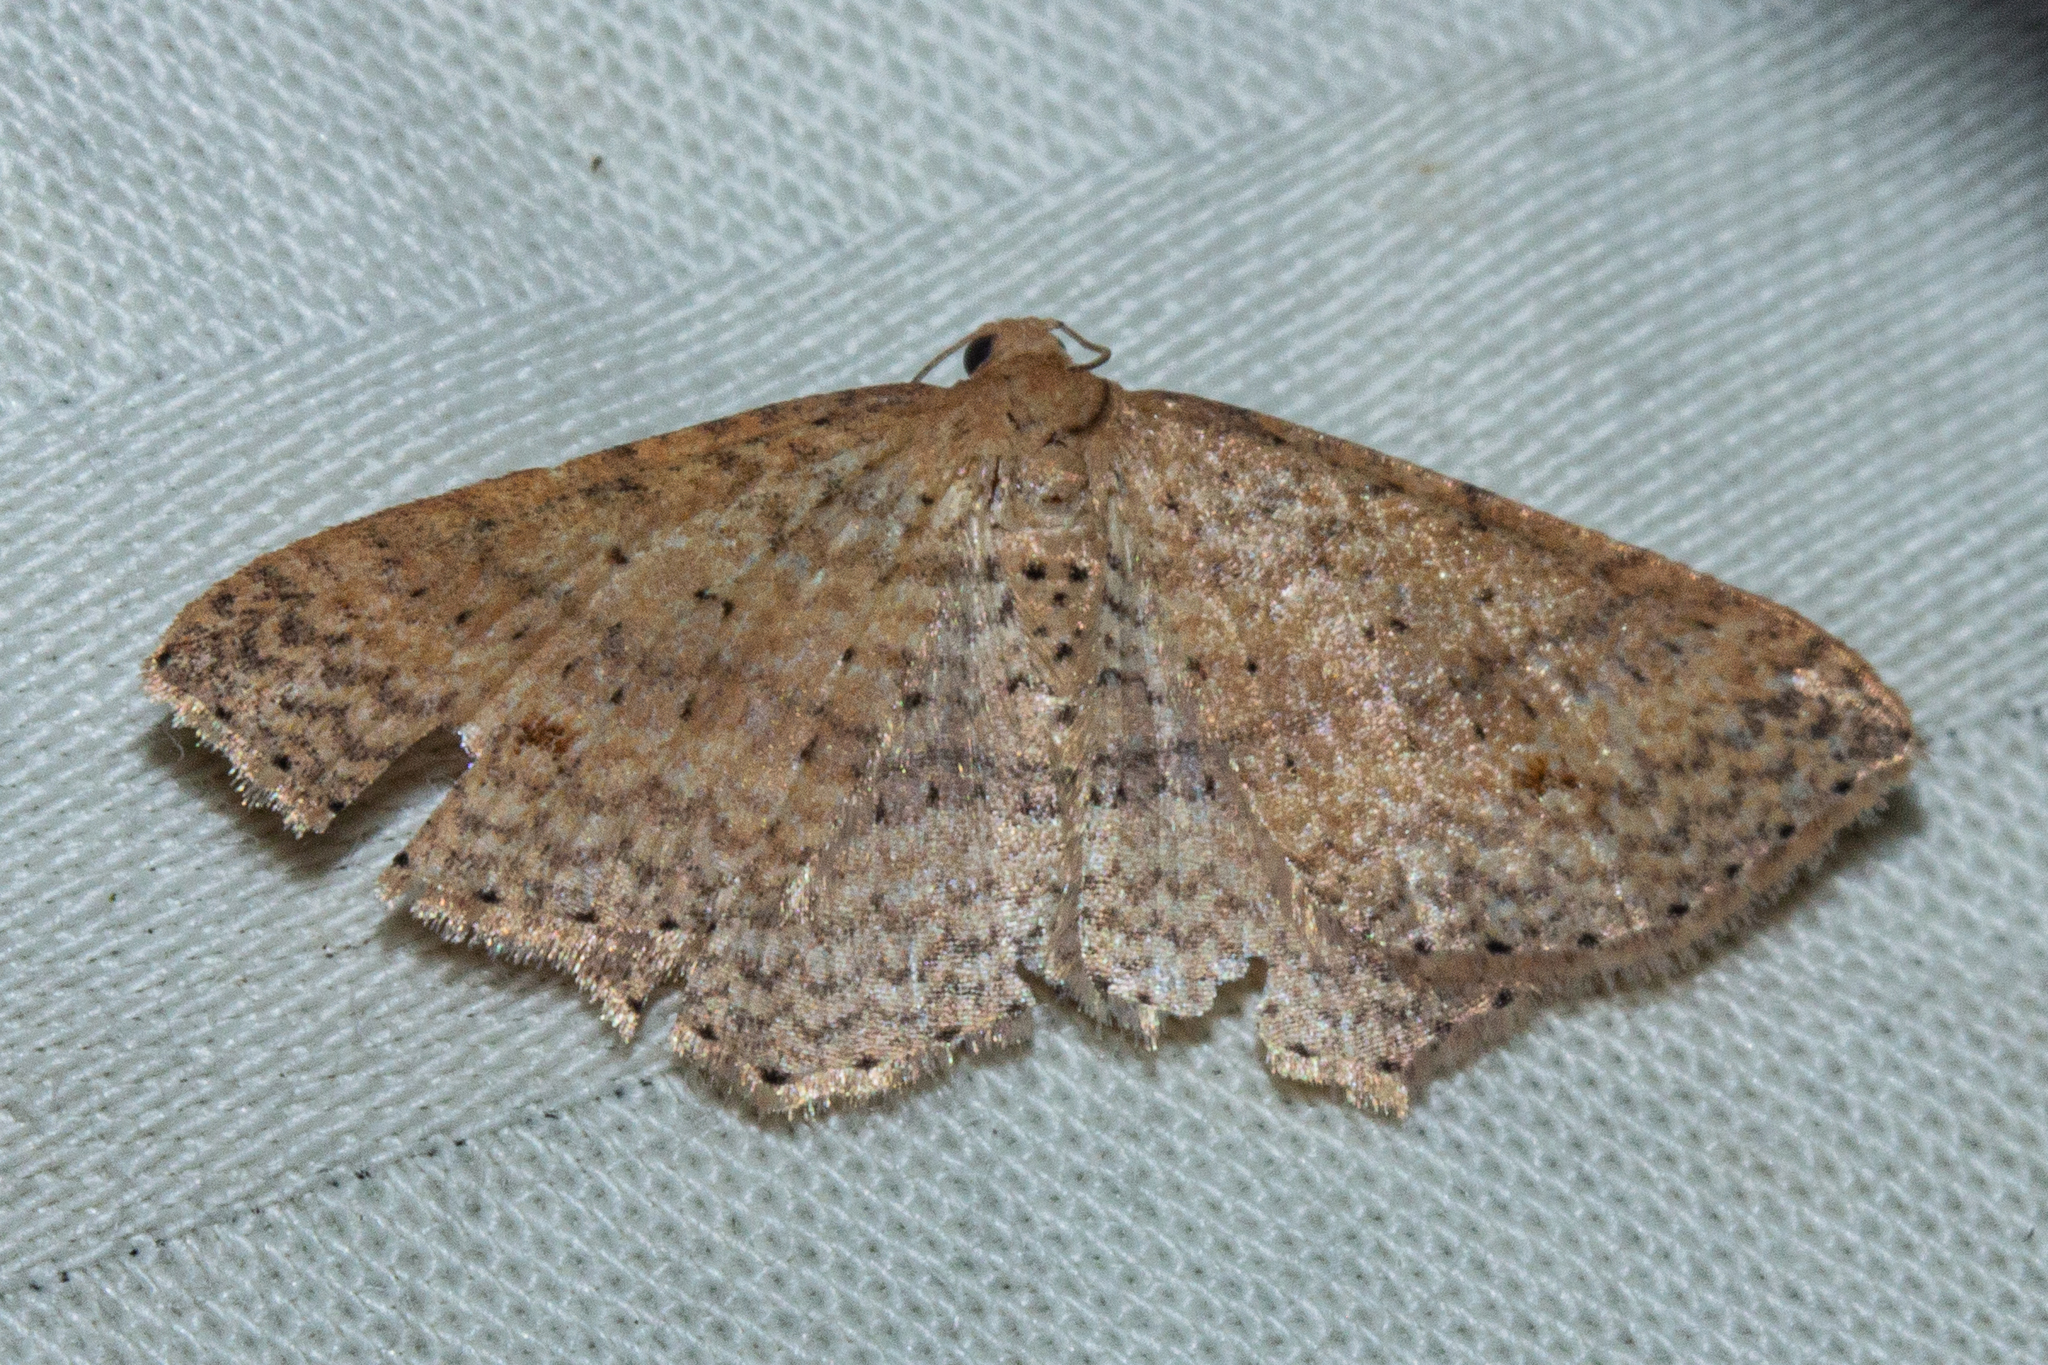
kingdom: Animalia
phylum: Arthropoda
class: Insecta
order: Lepidoptera
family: Geometridae
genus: Epicyme
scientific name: Epicyme rubropunctaria
